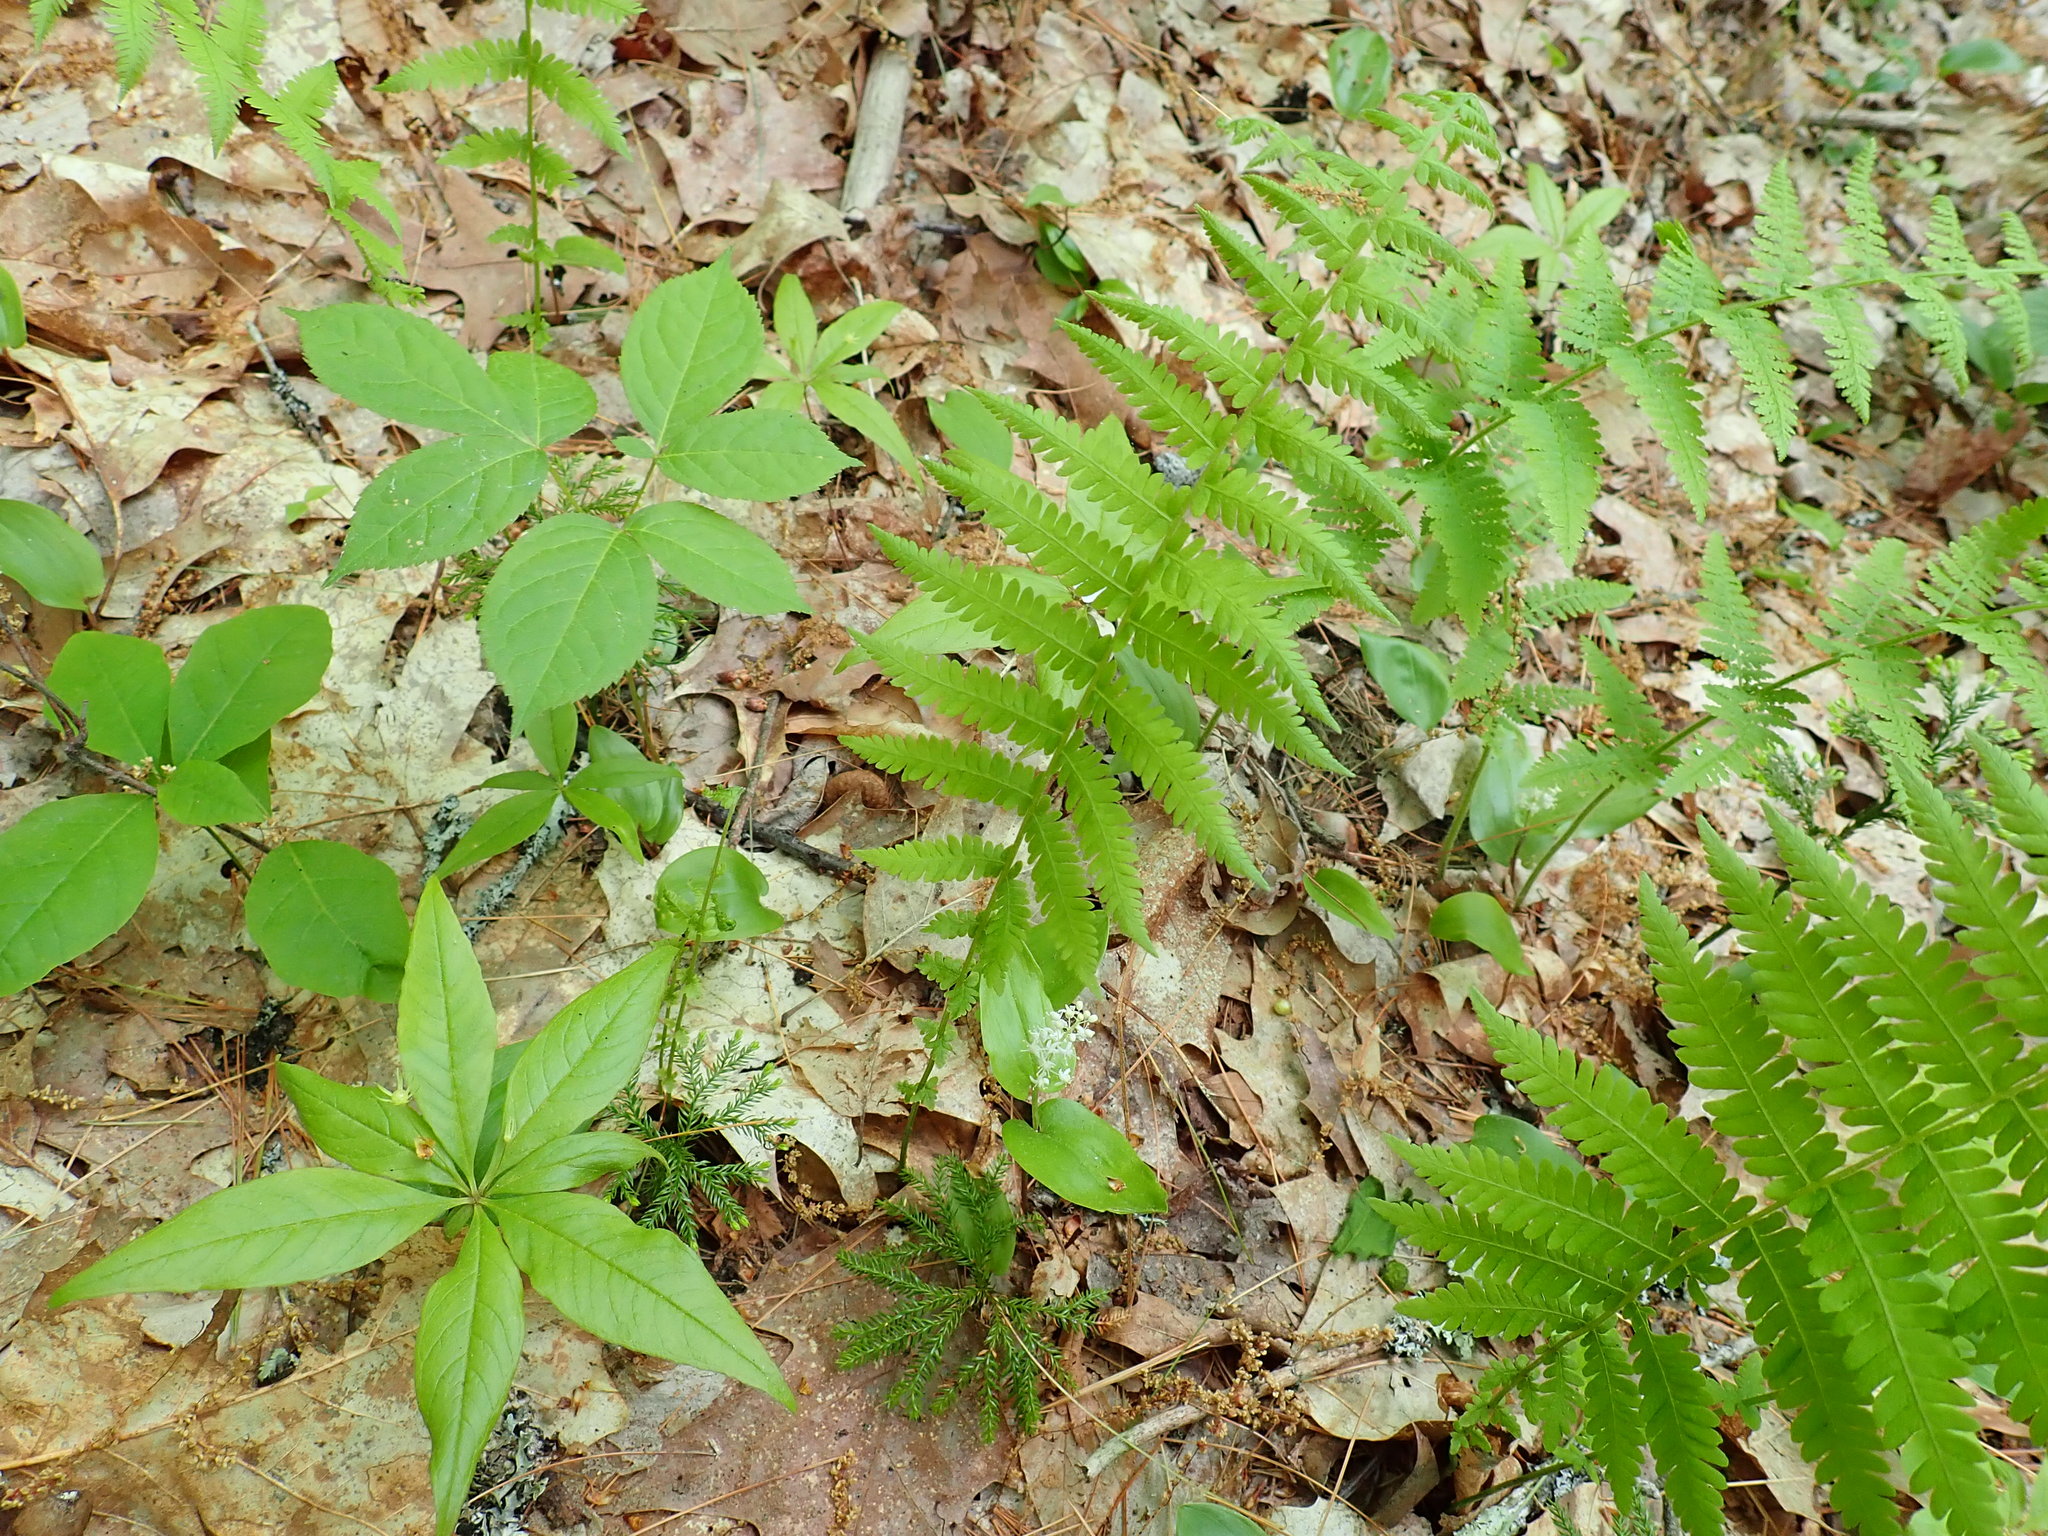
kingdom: Plantae
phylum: Tracheophyta
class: Polypodiopsida
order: Polypodiales
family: Thelypteridaceae
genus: Amauropelta
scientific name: Amauropelta noveboracensis
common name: New york fern
